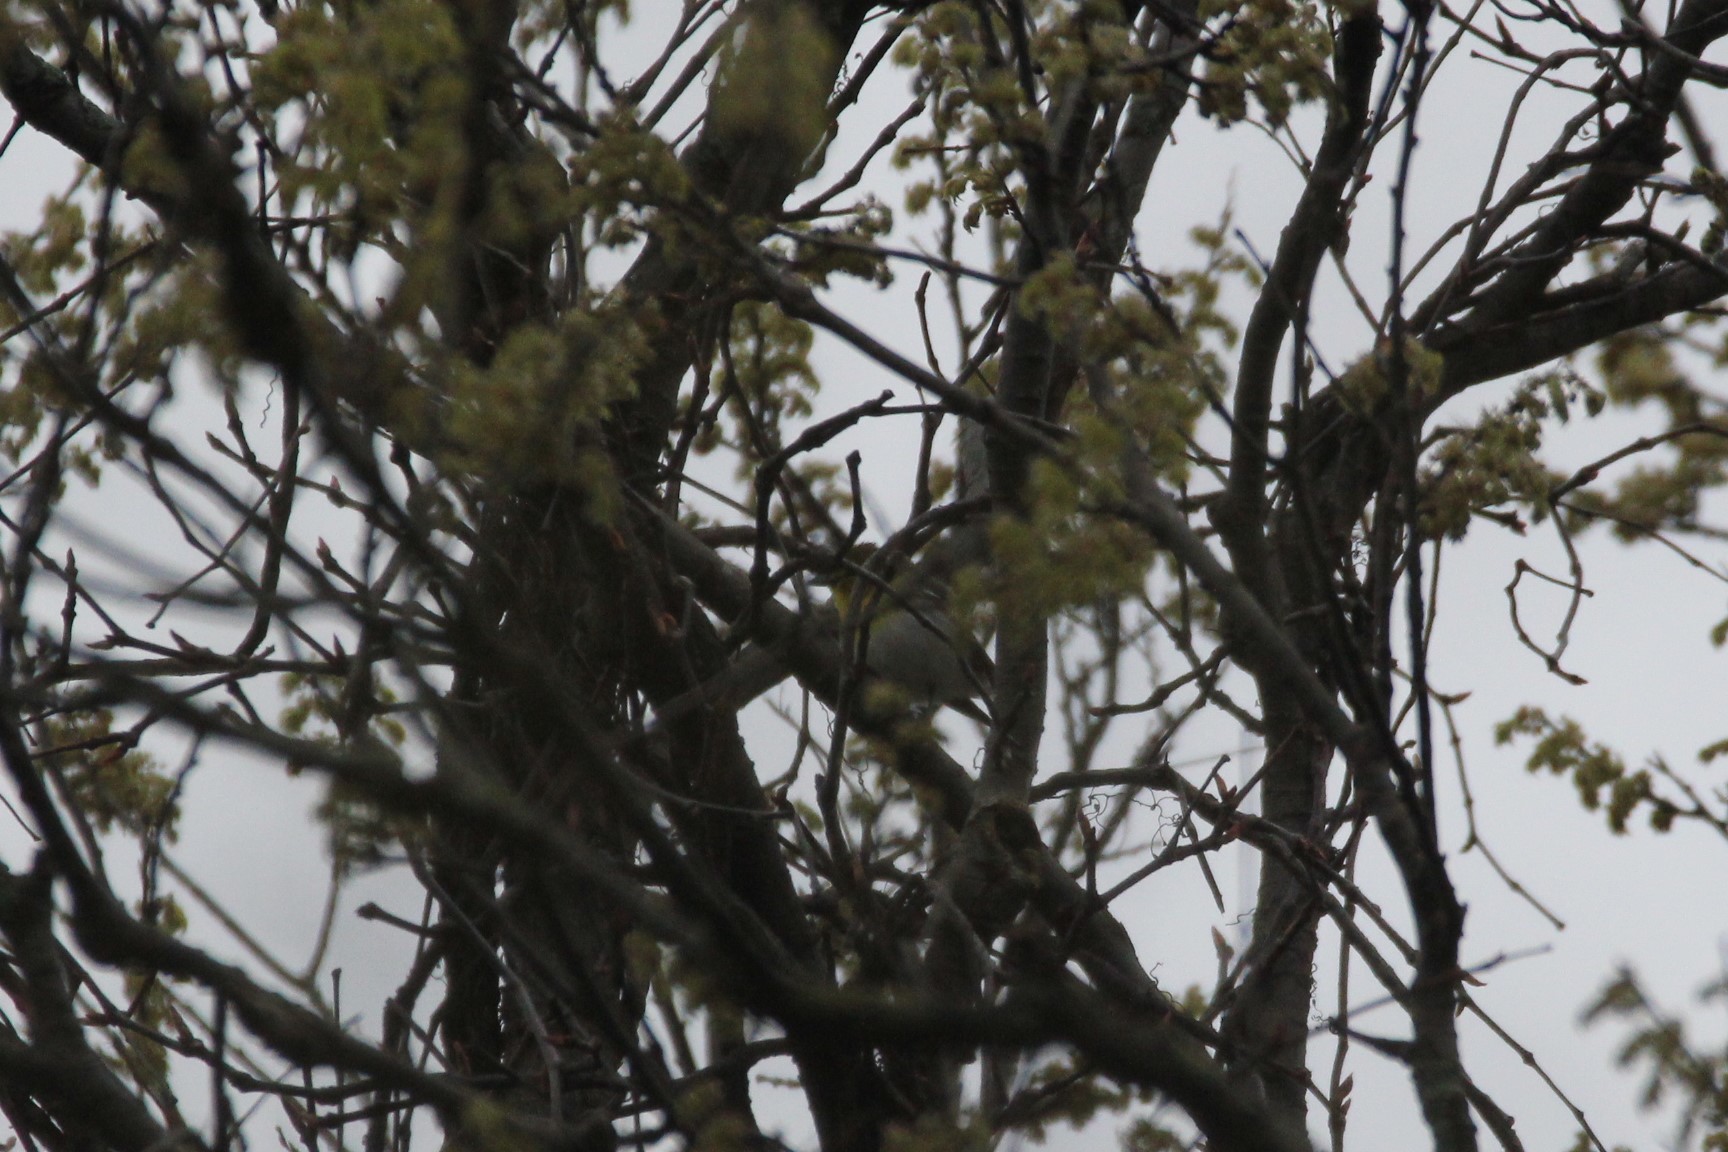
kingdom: Animalia
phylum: Chordata
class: Aves
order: Passeriformes
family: Vireonidae
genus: Vireo
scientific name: Vireo flavifrons
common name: Yellow-throated vireo
